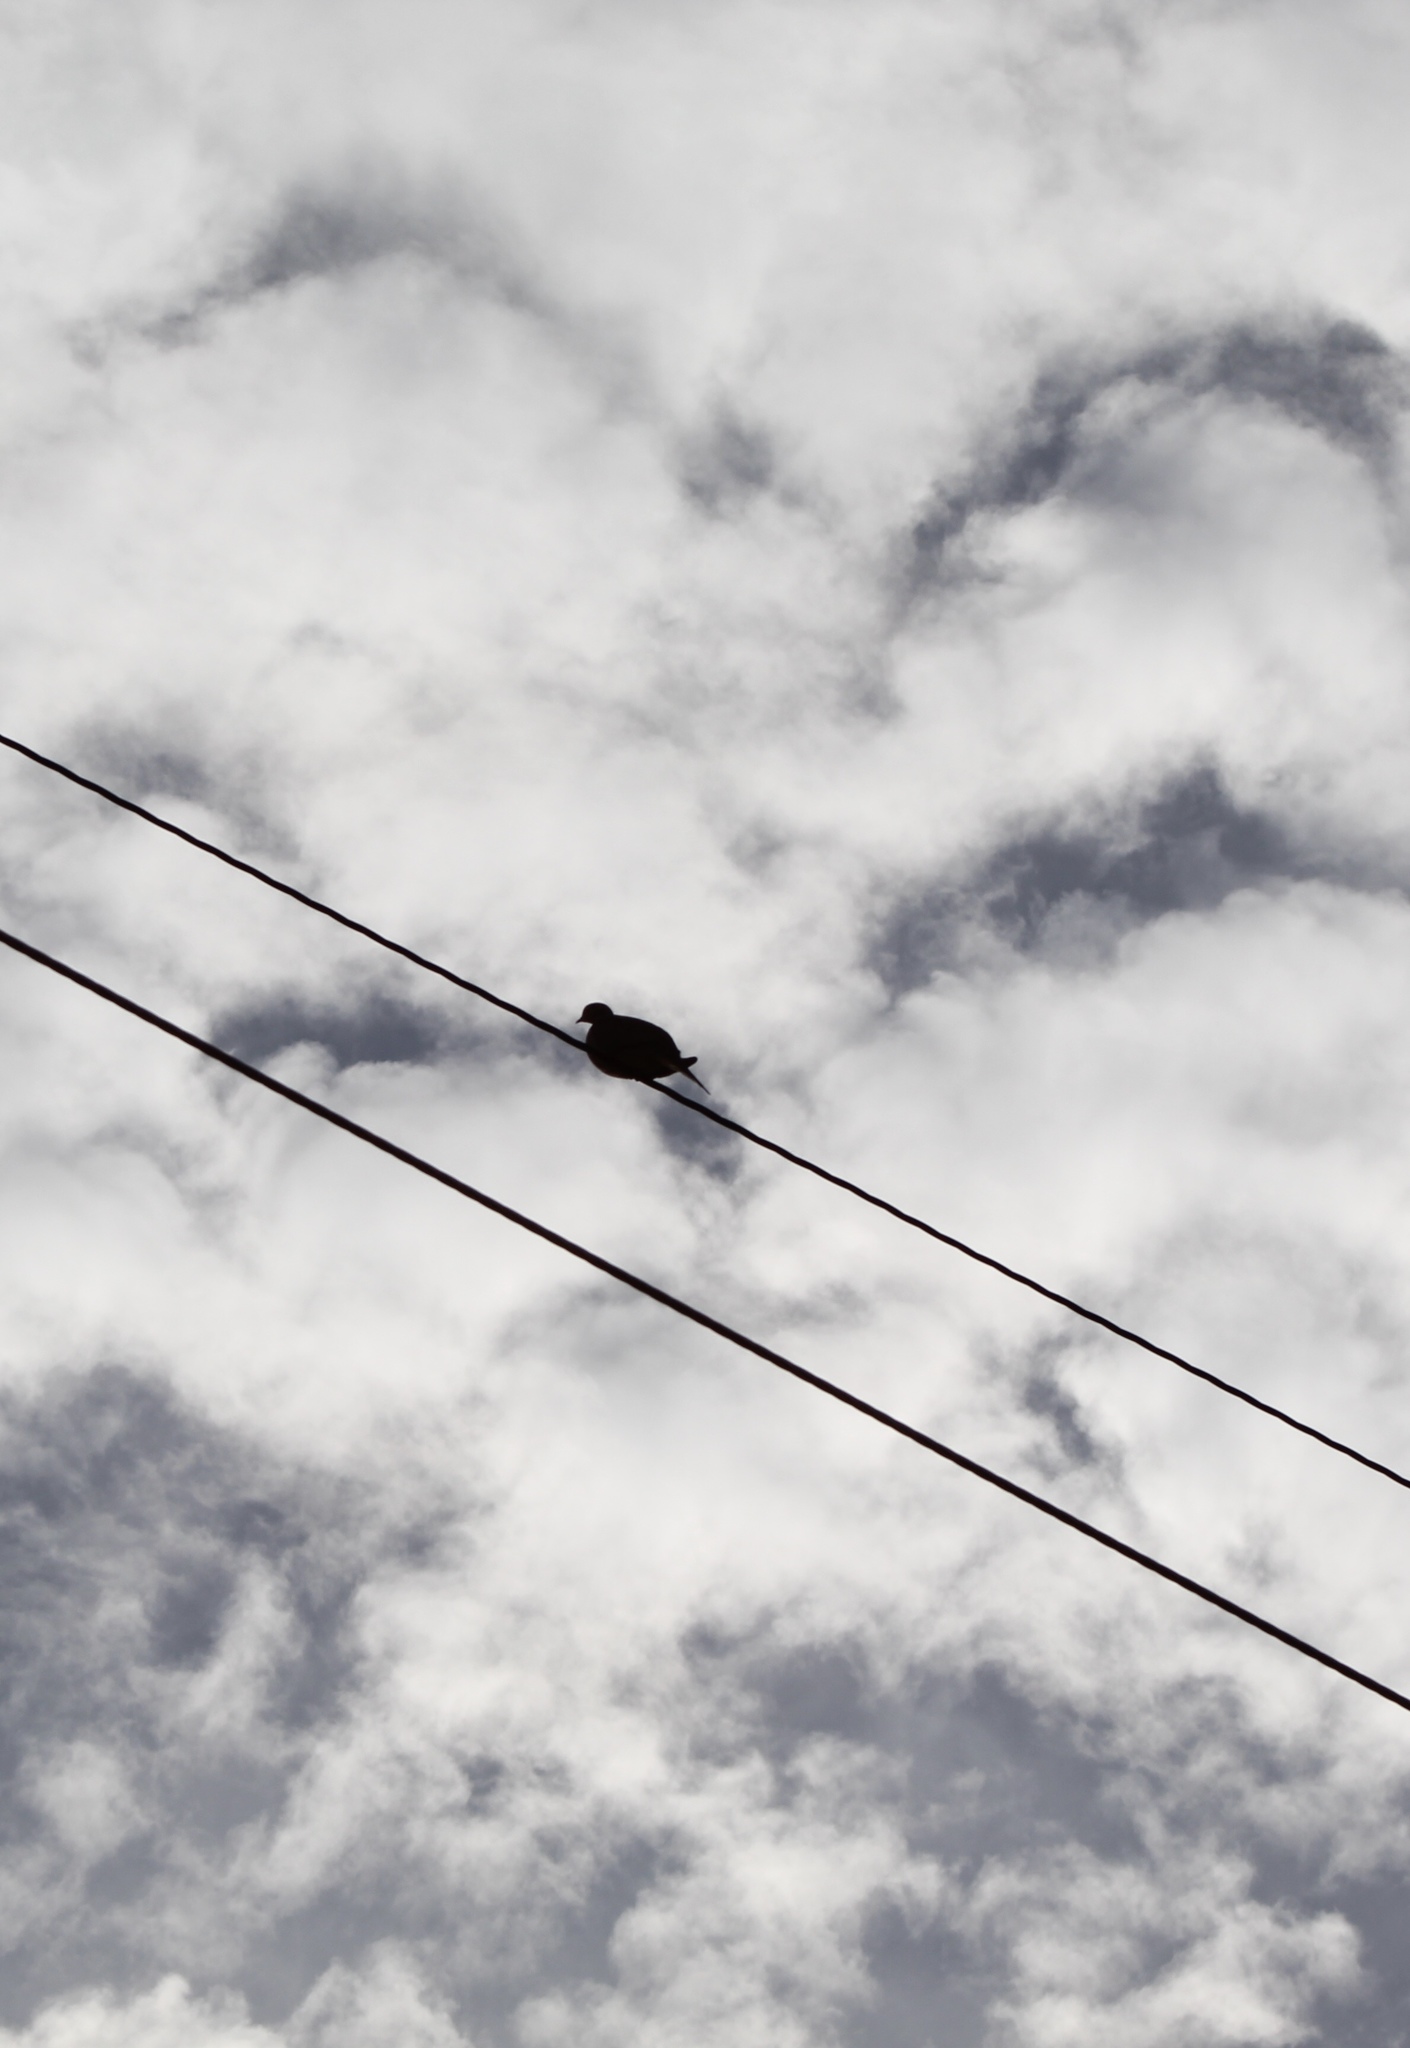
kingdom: Animalia
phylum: Chordata
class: Aves
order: Columbiformes
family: Columbidae
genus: Zenaida
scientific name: Zenaida macroura
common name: Mourning dove
